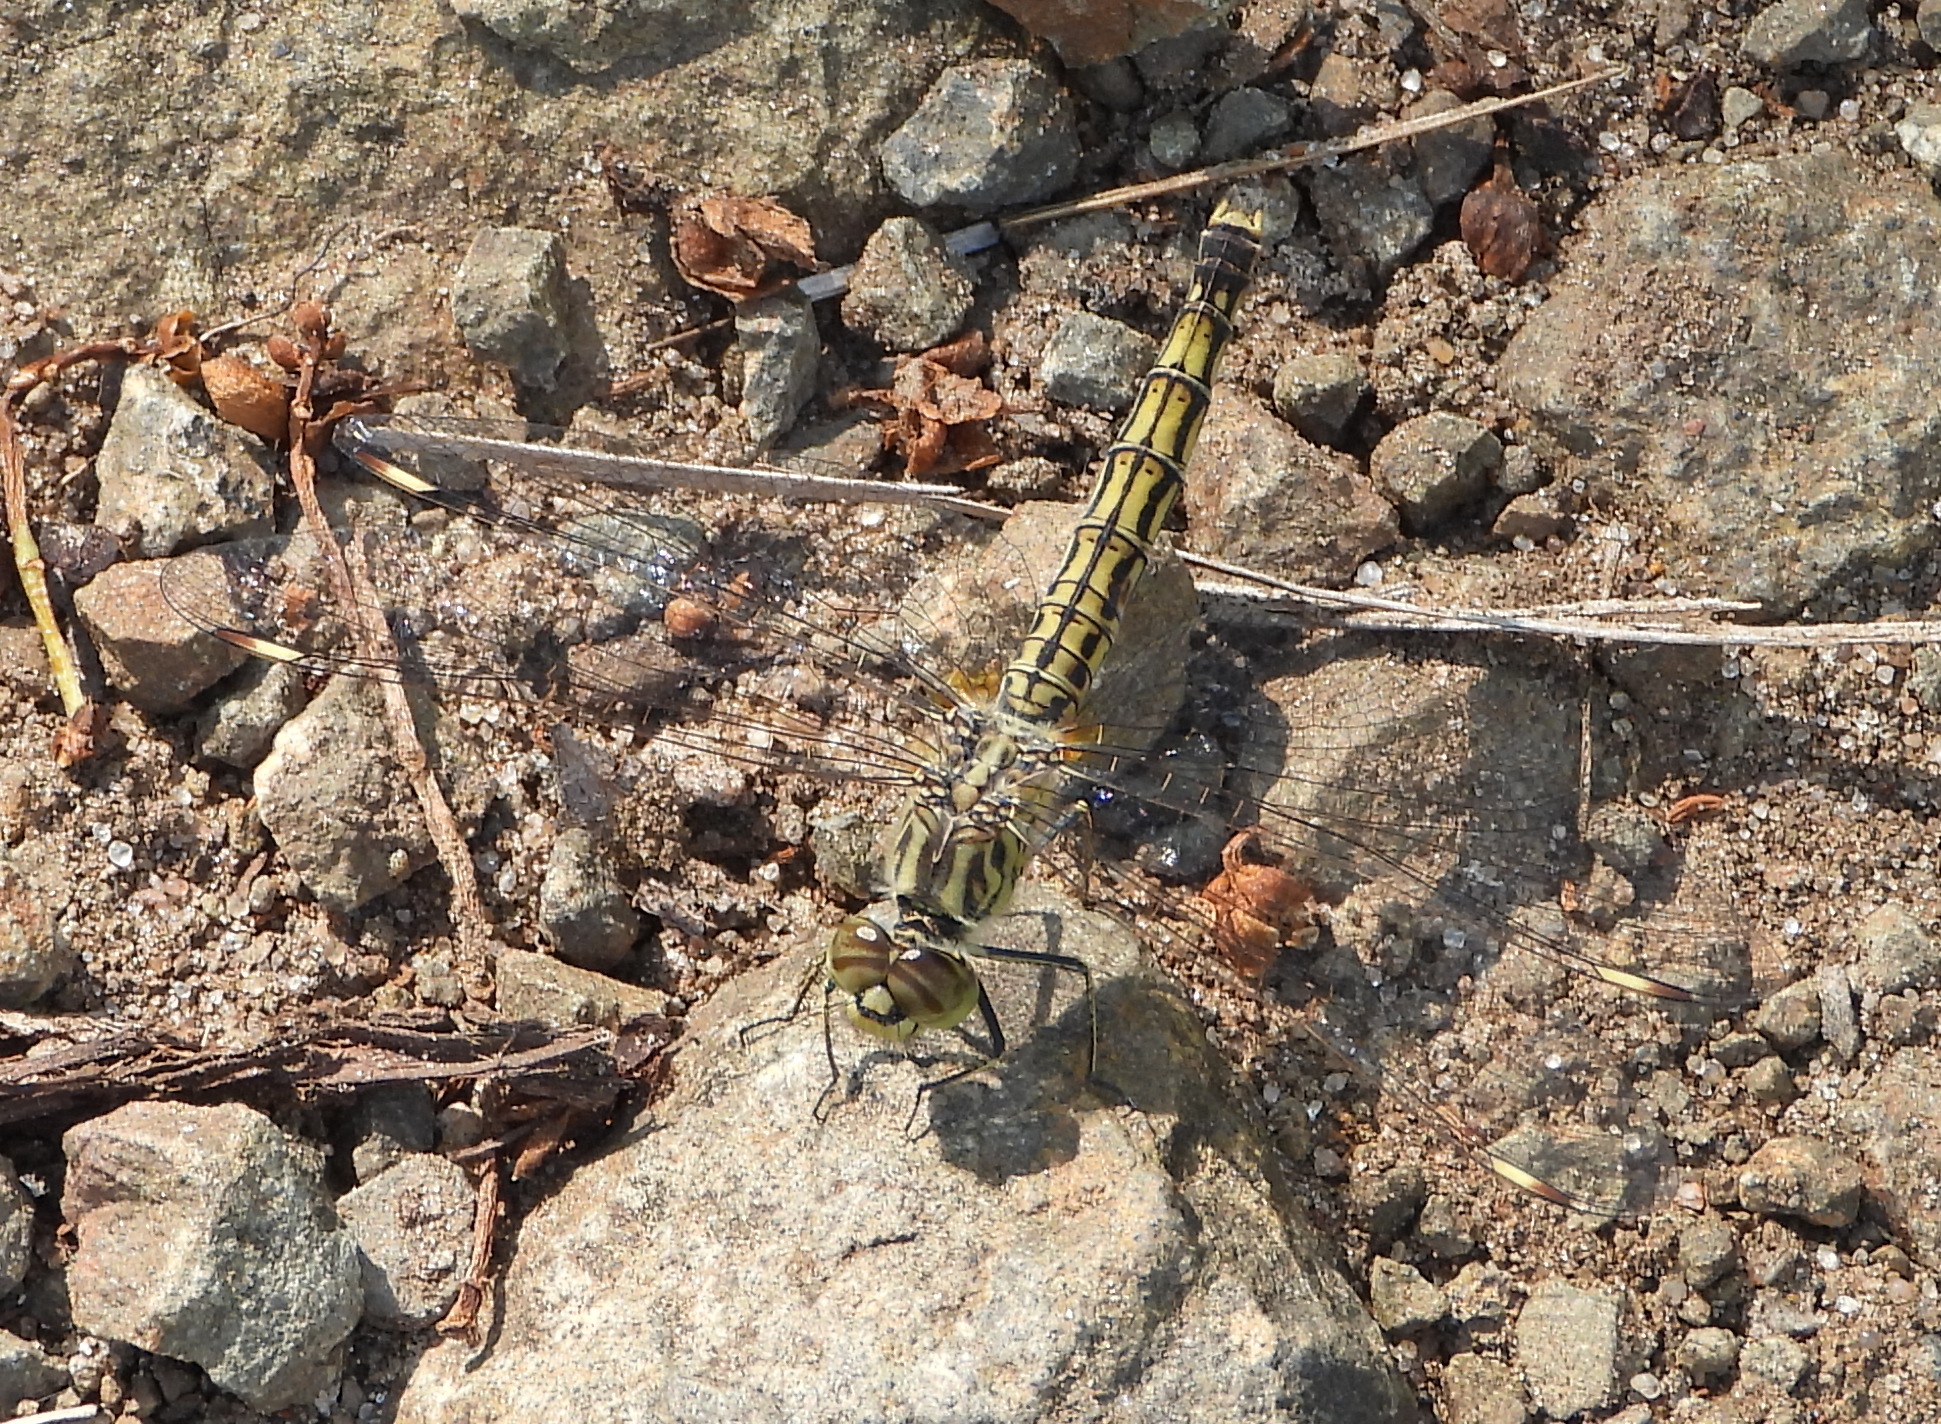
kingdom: Animalia
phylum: Arthropoda
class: Insecta
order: Odonata
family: Libellulidae
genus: Brachythemis
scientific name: Brachythemis leucosticta
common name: Banded groundling
